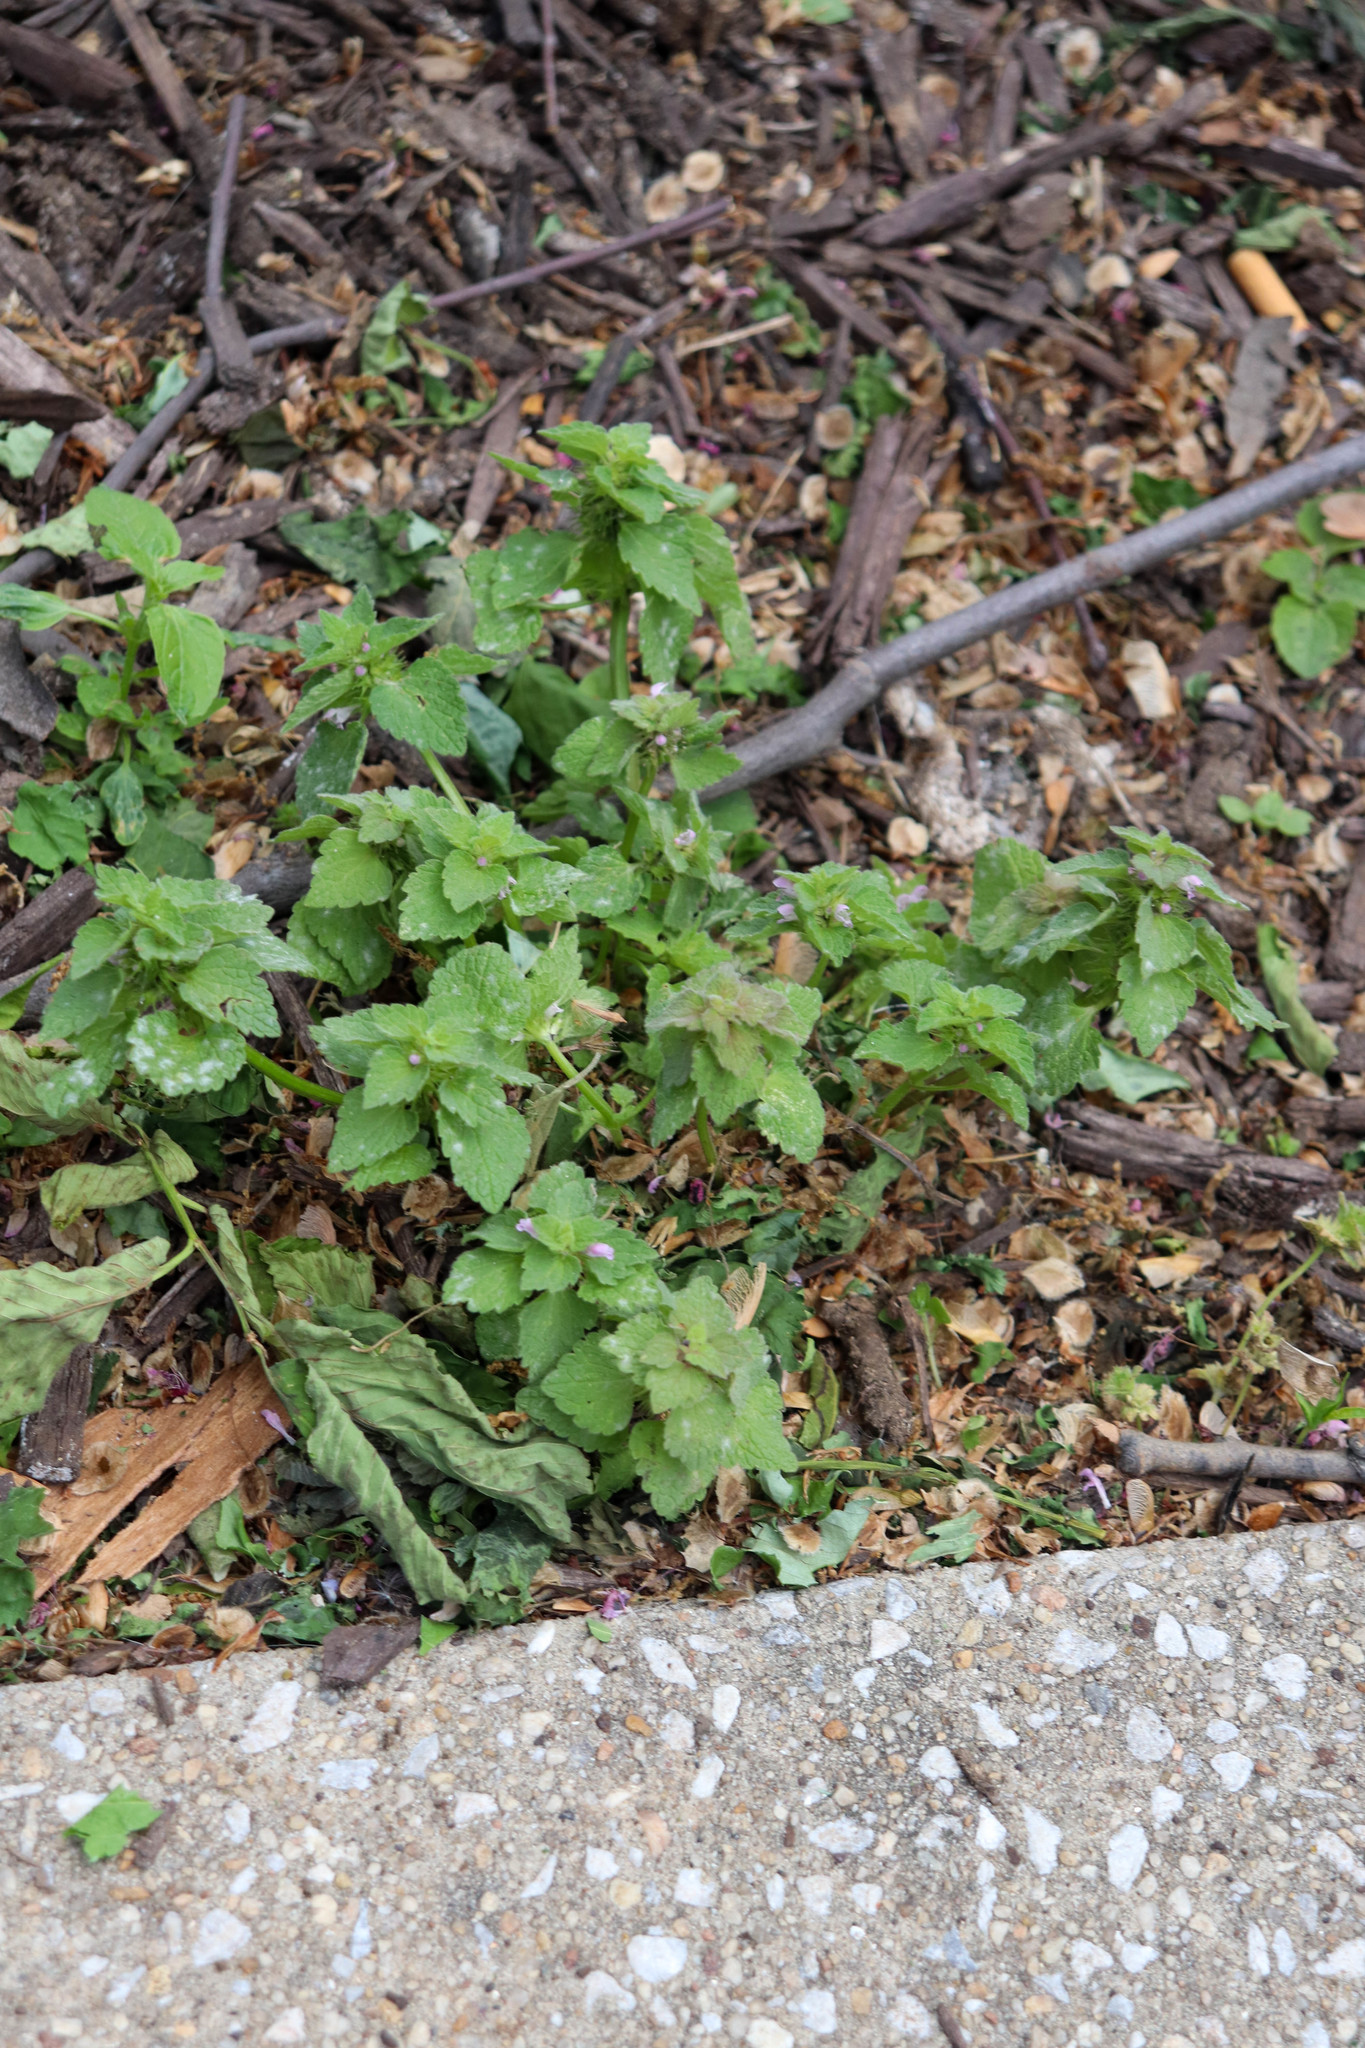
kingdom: Plantae
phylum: Tracheophyta
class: Magnoliopsida
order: Lamiales
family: Lamiaceae
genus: Lamium
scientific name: Lamium purpureum
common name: Red dead-nettle
